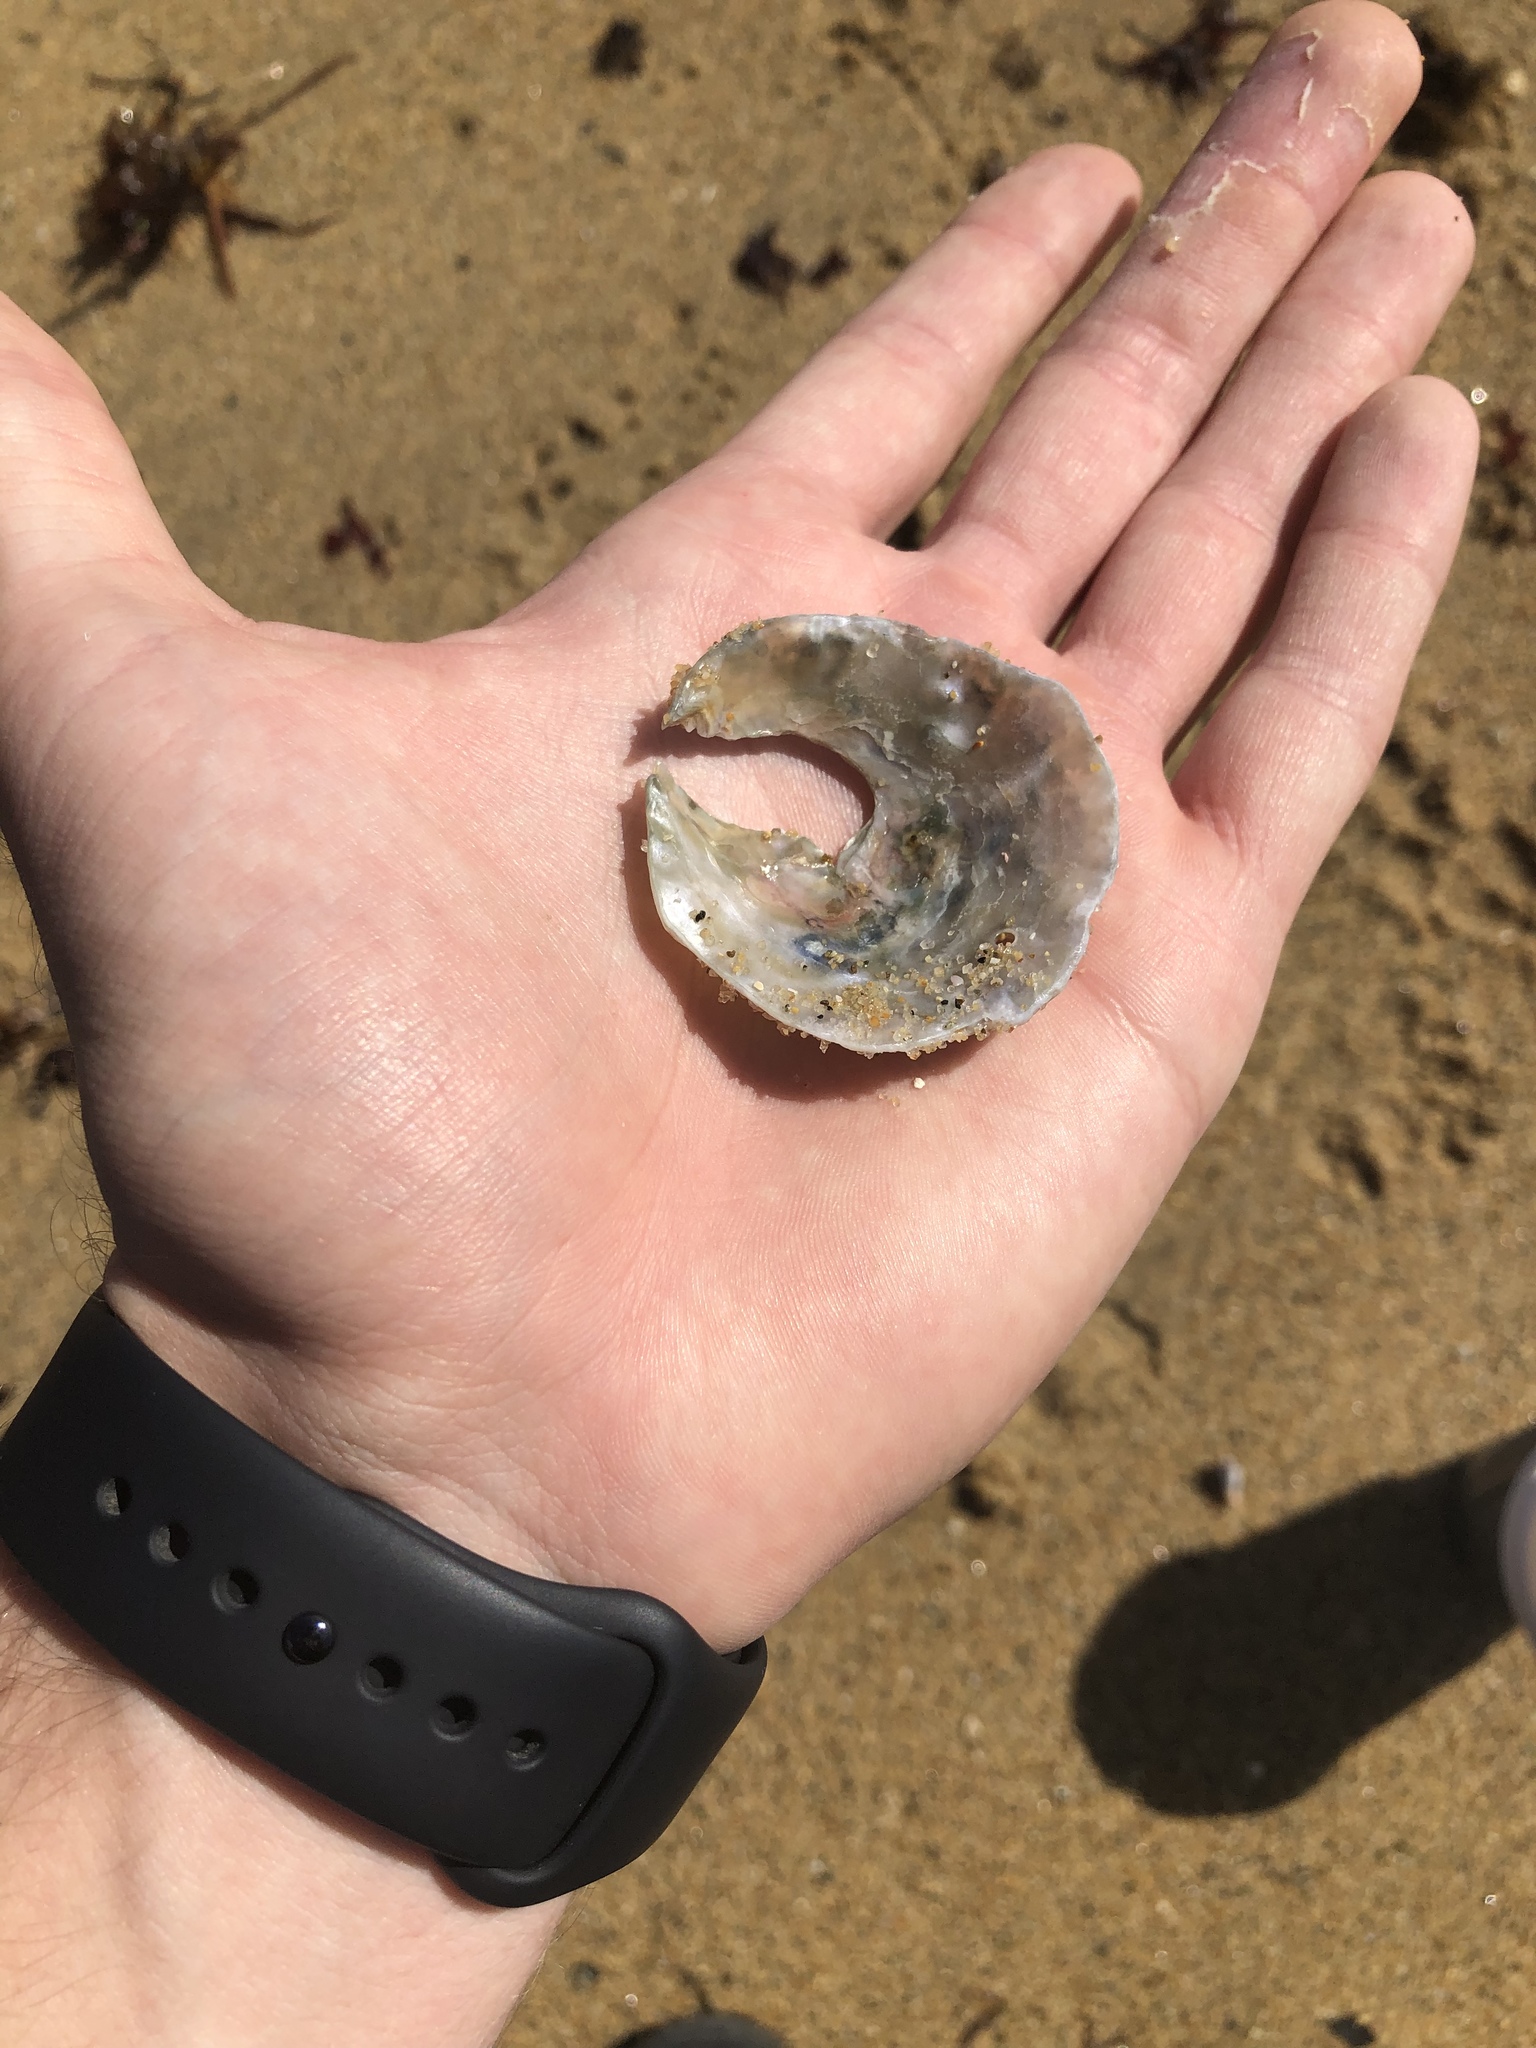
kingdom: Animalia
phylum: Mollusca
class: Bivalvia
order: Pectinida
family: Anomiidae
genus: Pododesmus
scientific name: Pododesmus macrochisma
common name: Alaska jingle
